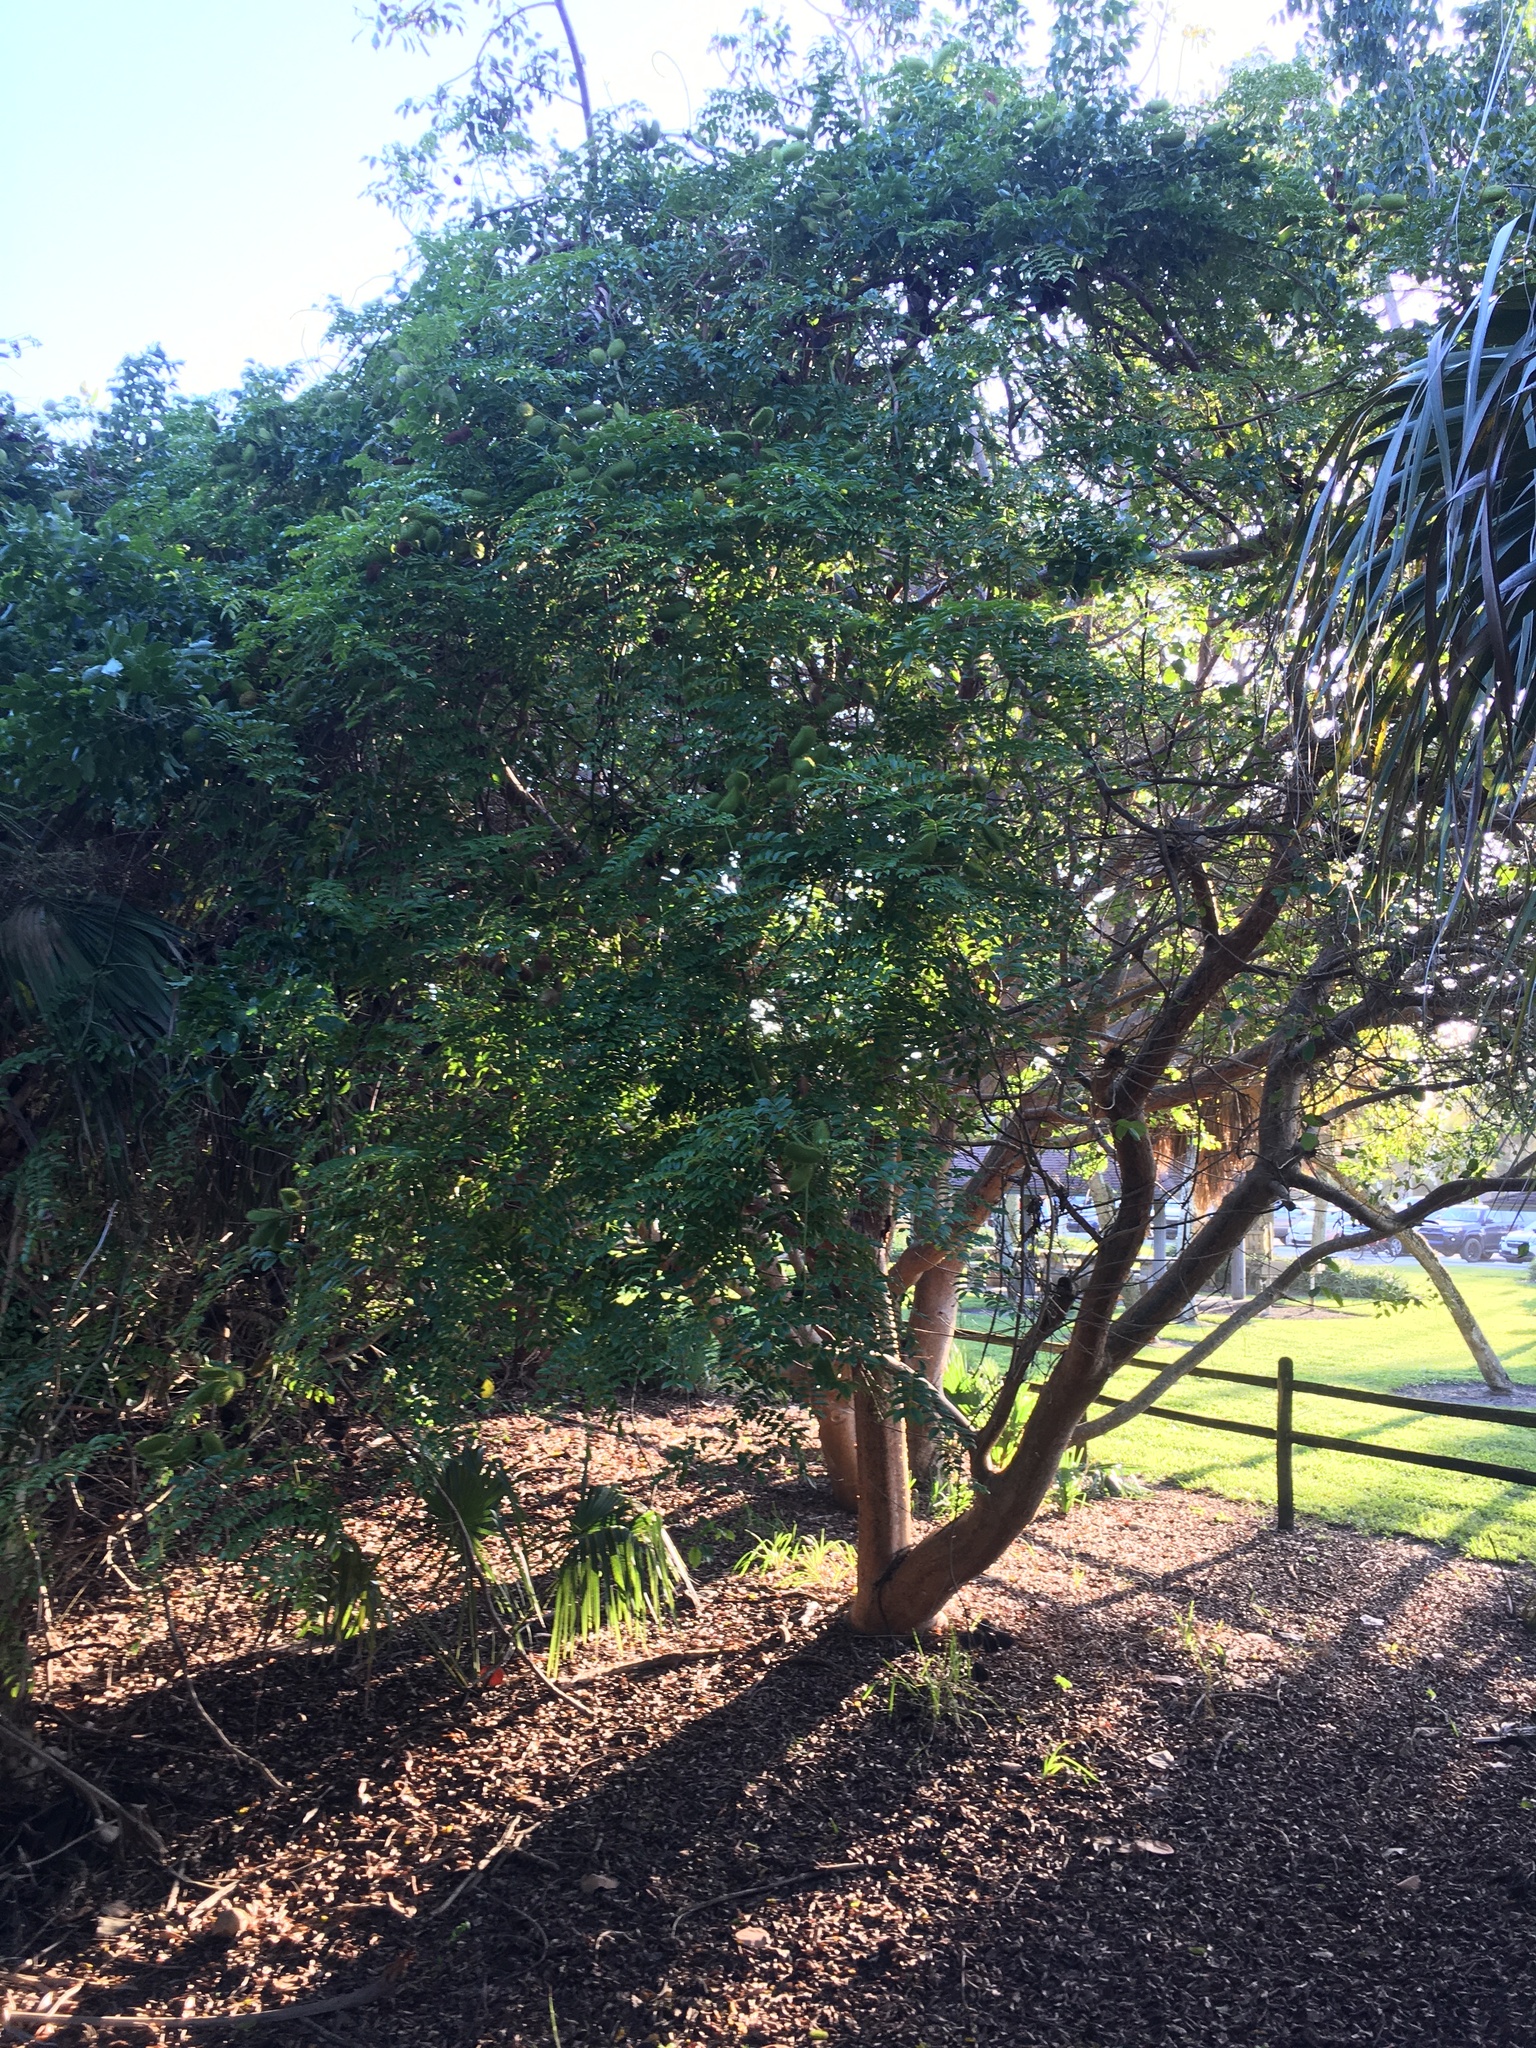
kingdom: Plantae
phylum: Tracheophyta
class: Magnoliopsida
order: Sapindales
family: Burseraceae
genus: Bursera
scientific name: Bursera simaruba
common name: Turpentine tree
